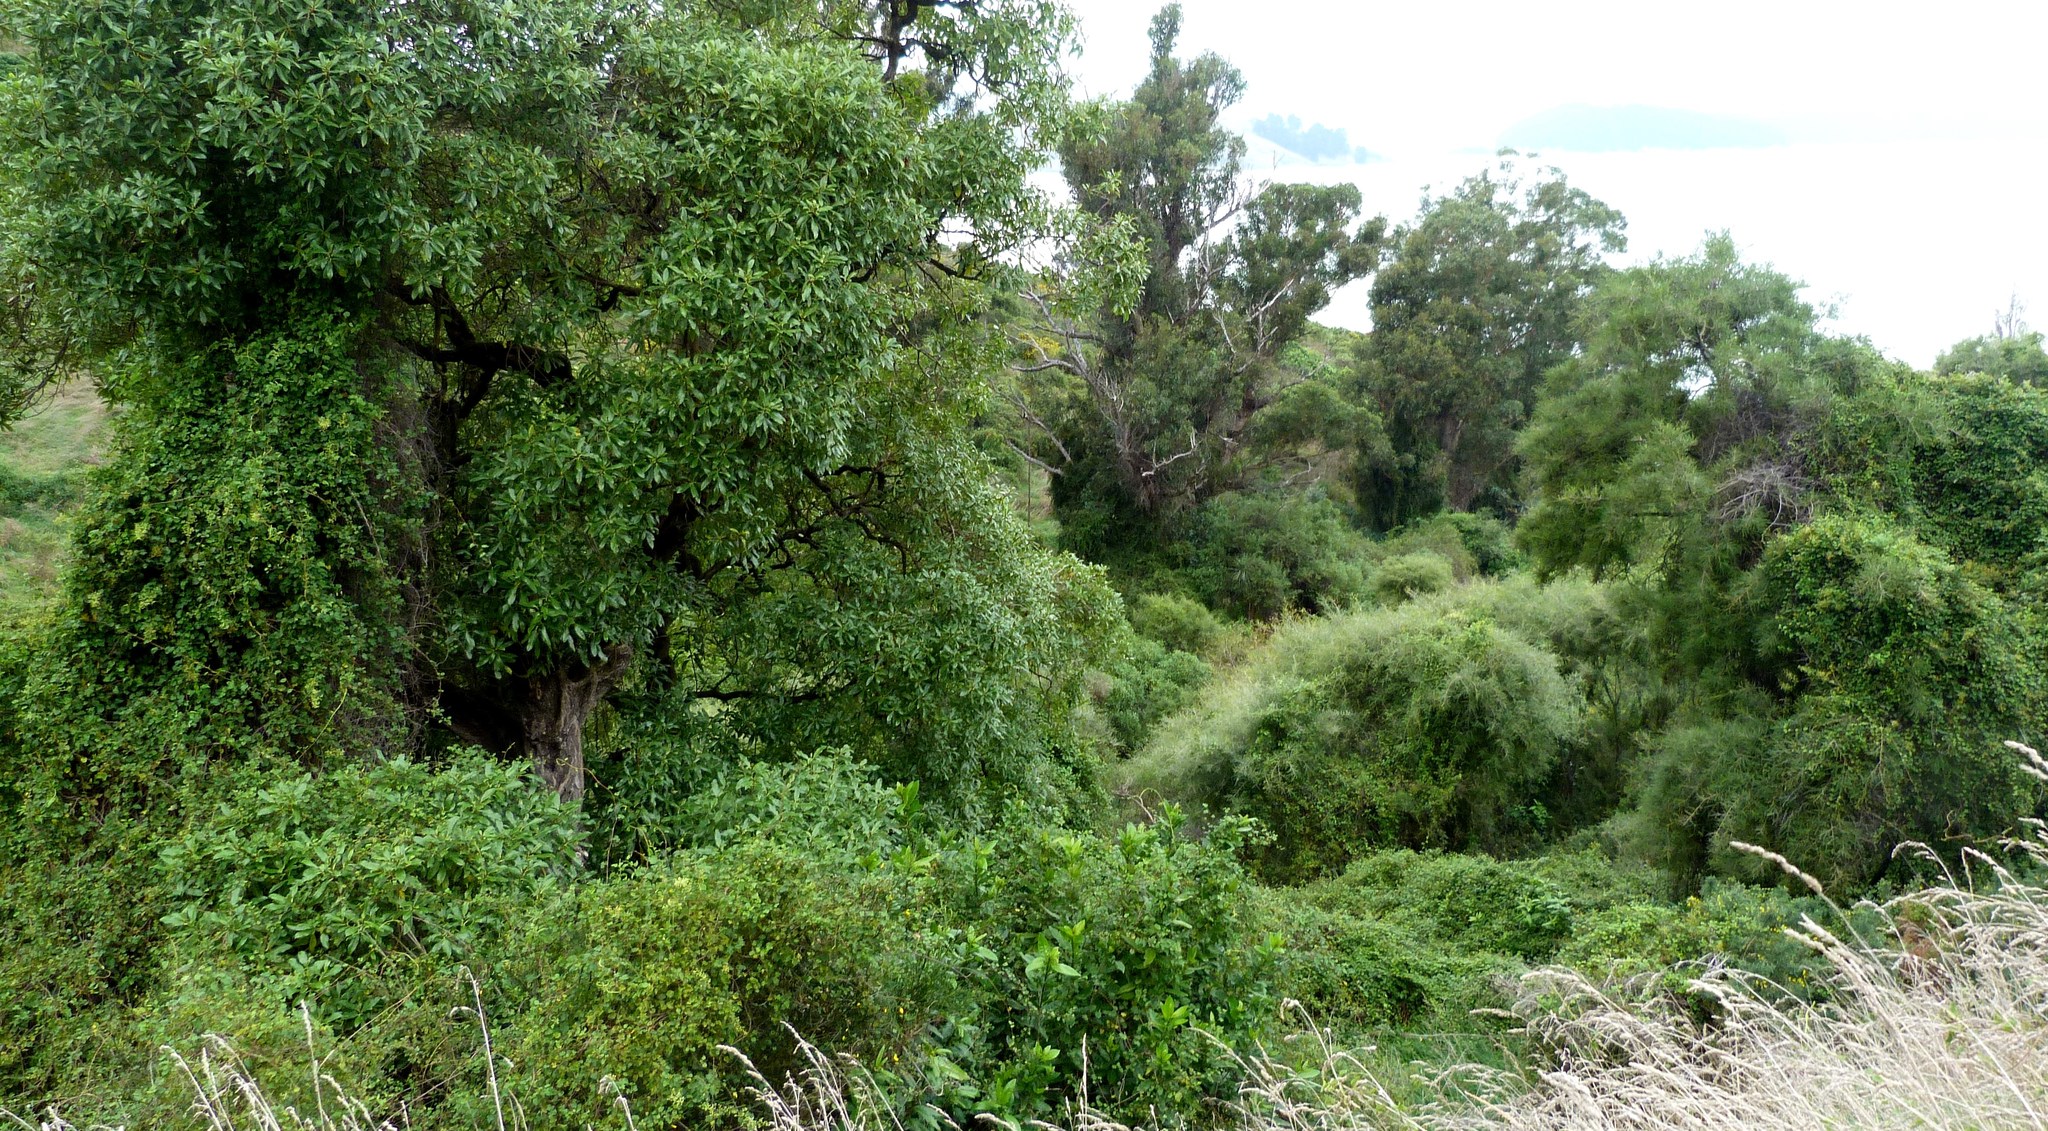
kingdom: Plantae
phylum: Tracheophyta
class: Magnoliopsida
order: Fabales
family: Fabaceae
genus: Sophora
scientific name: Sophora microphylla
